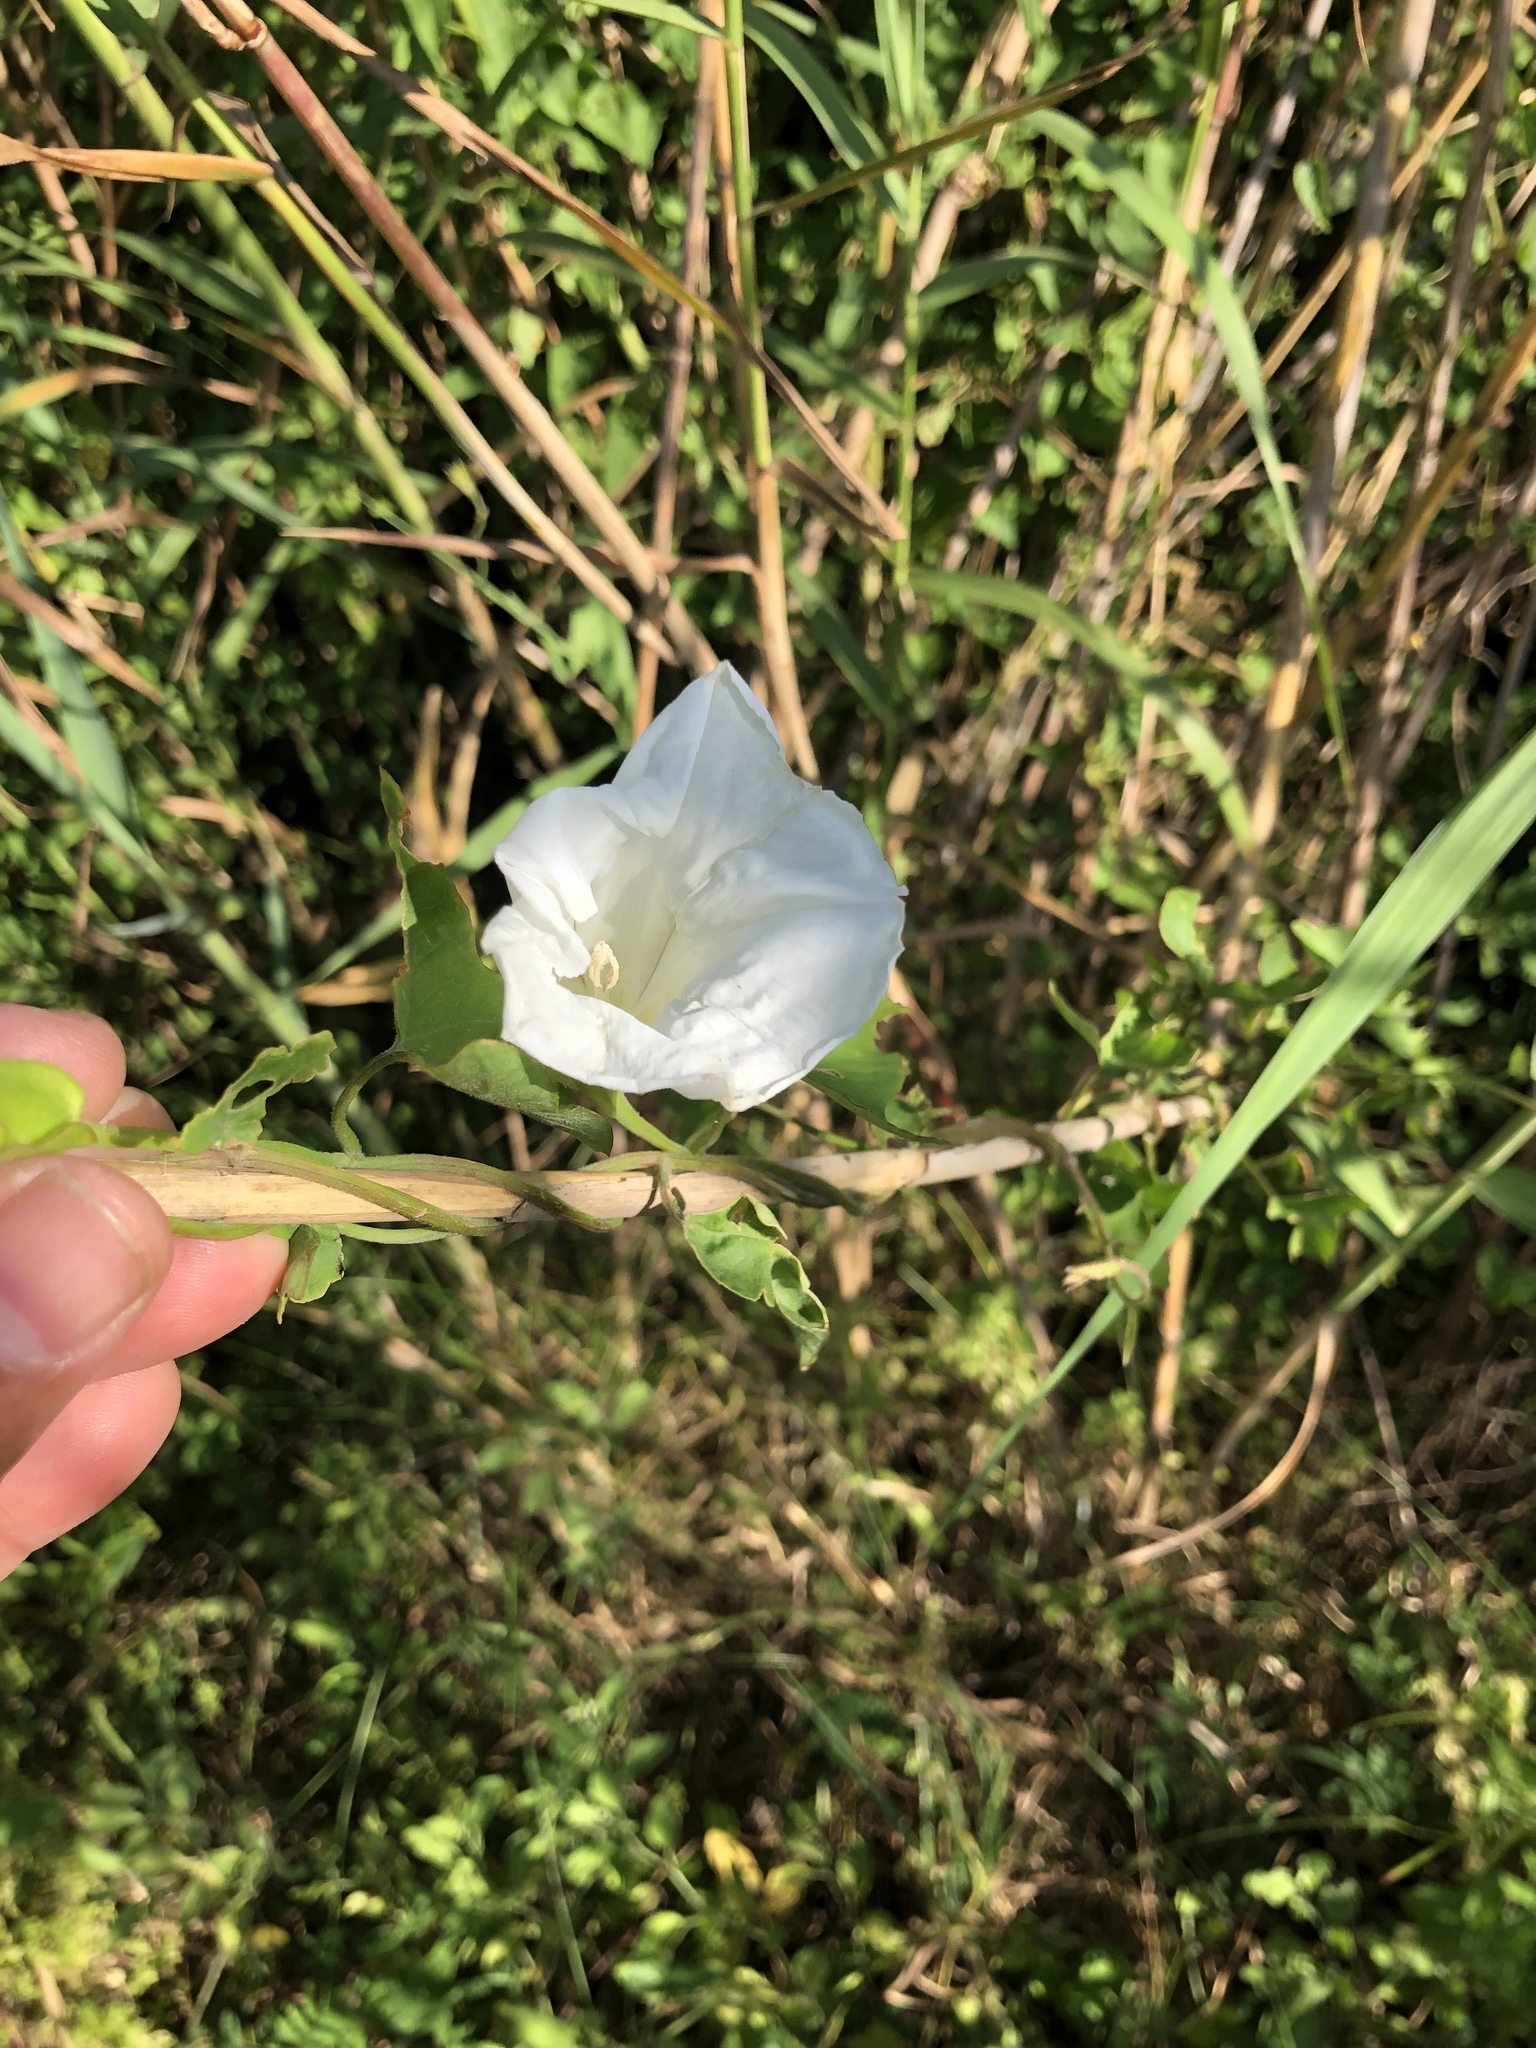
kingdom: Plantae
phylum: Tracheophyta
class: Magnoliopsida
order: Solanales
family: Convolvulaceae
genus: Calystegia
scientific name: Calystegia sepium
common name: Hedge bindweed
